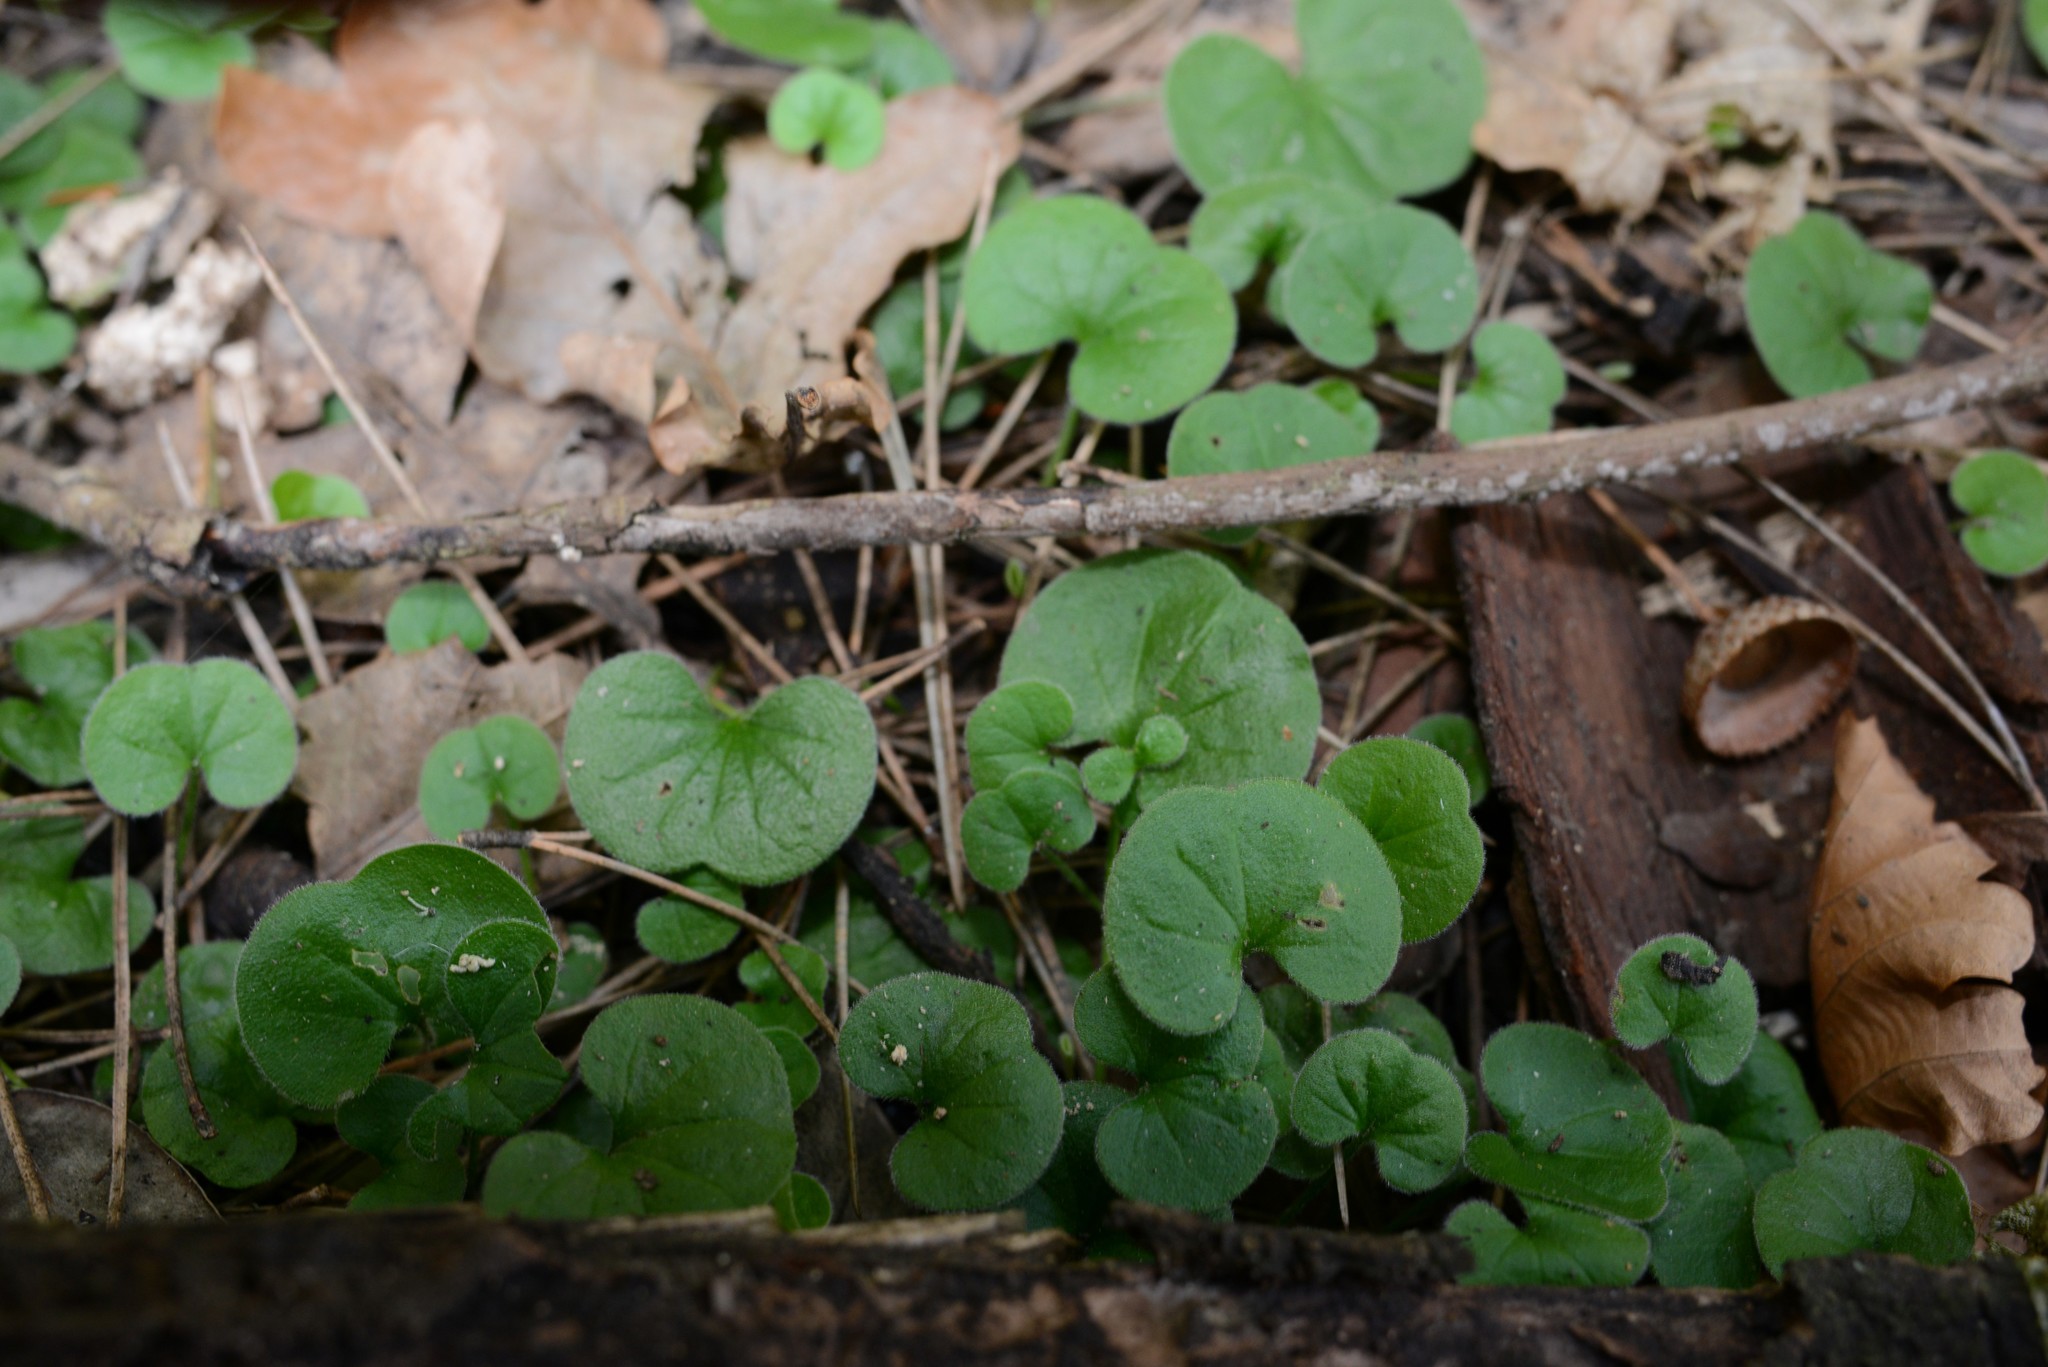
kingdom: Plantae
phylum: Tracheophyta
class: Magnoliopsida
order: Solanales
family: Convolvulaceae
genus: Dichondra
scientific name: Dichondra repens
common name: Kidneyweed
